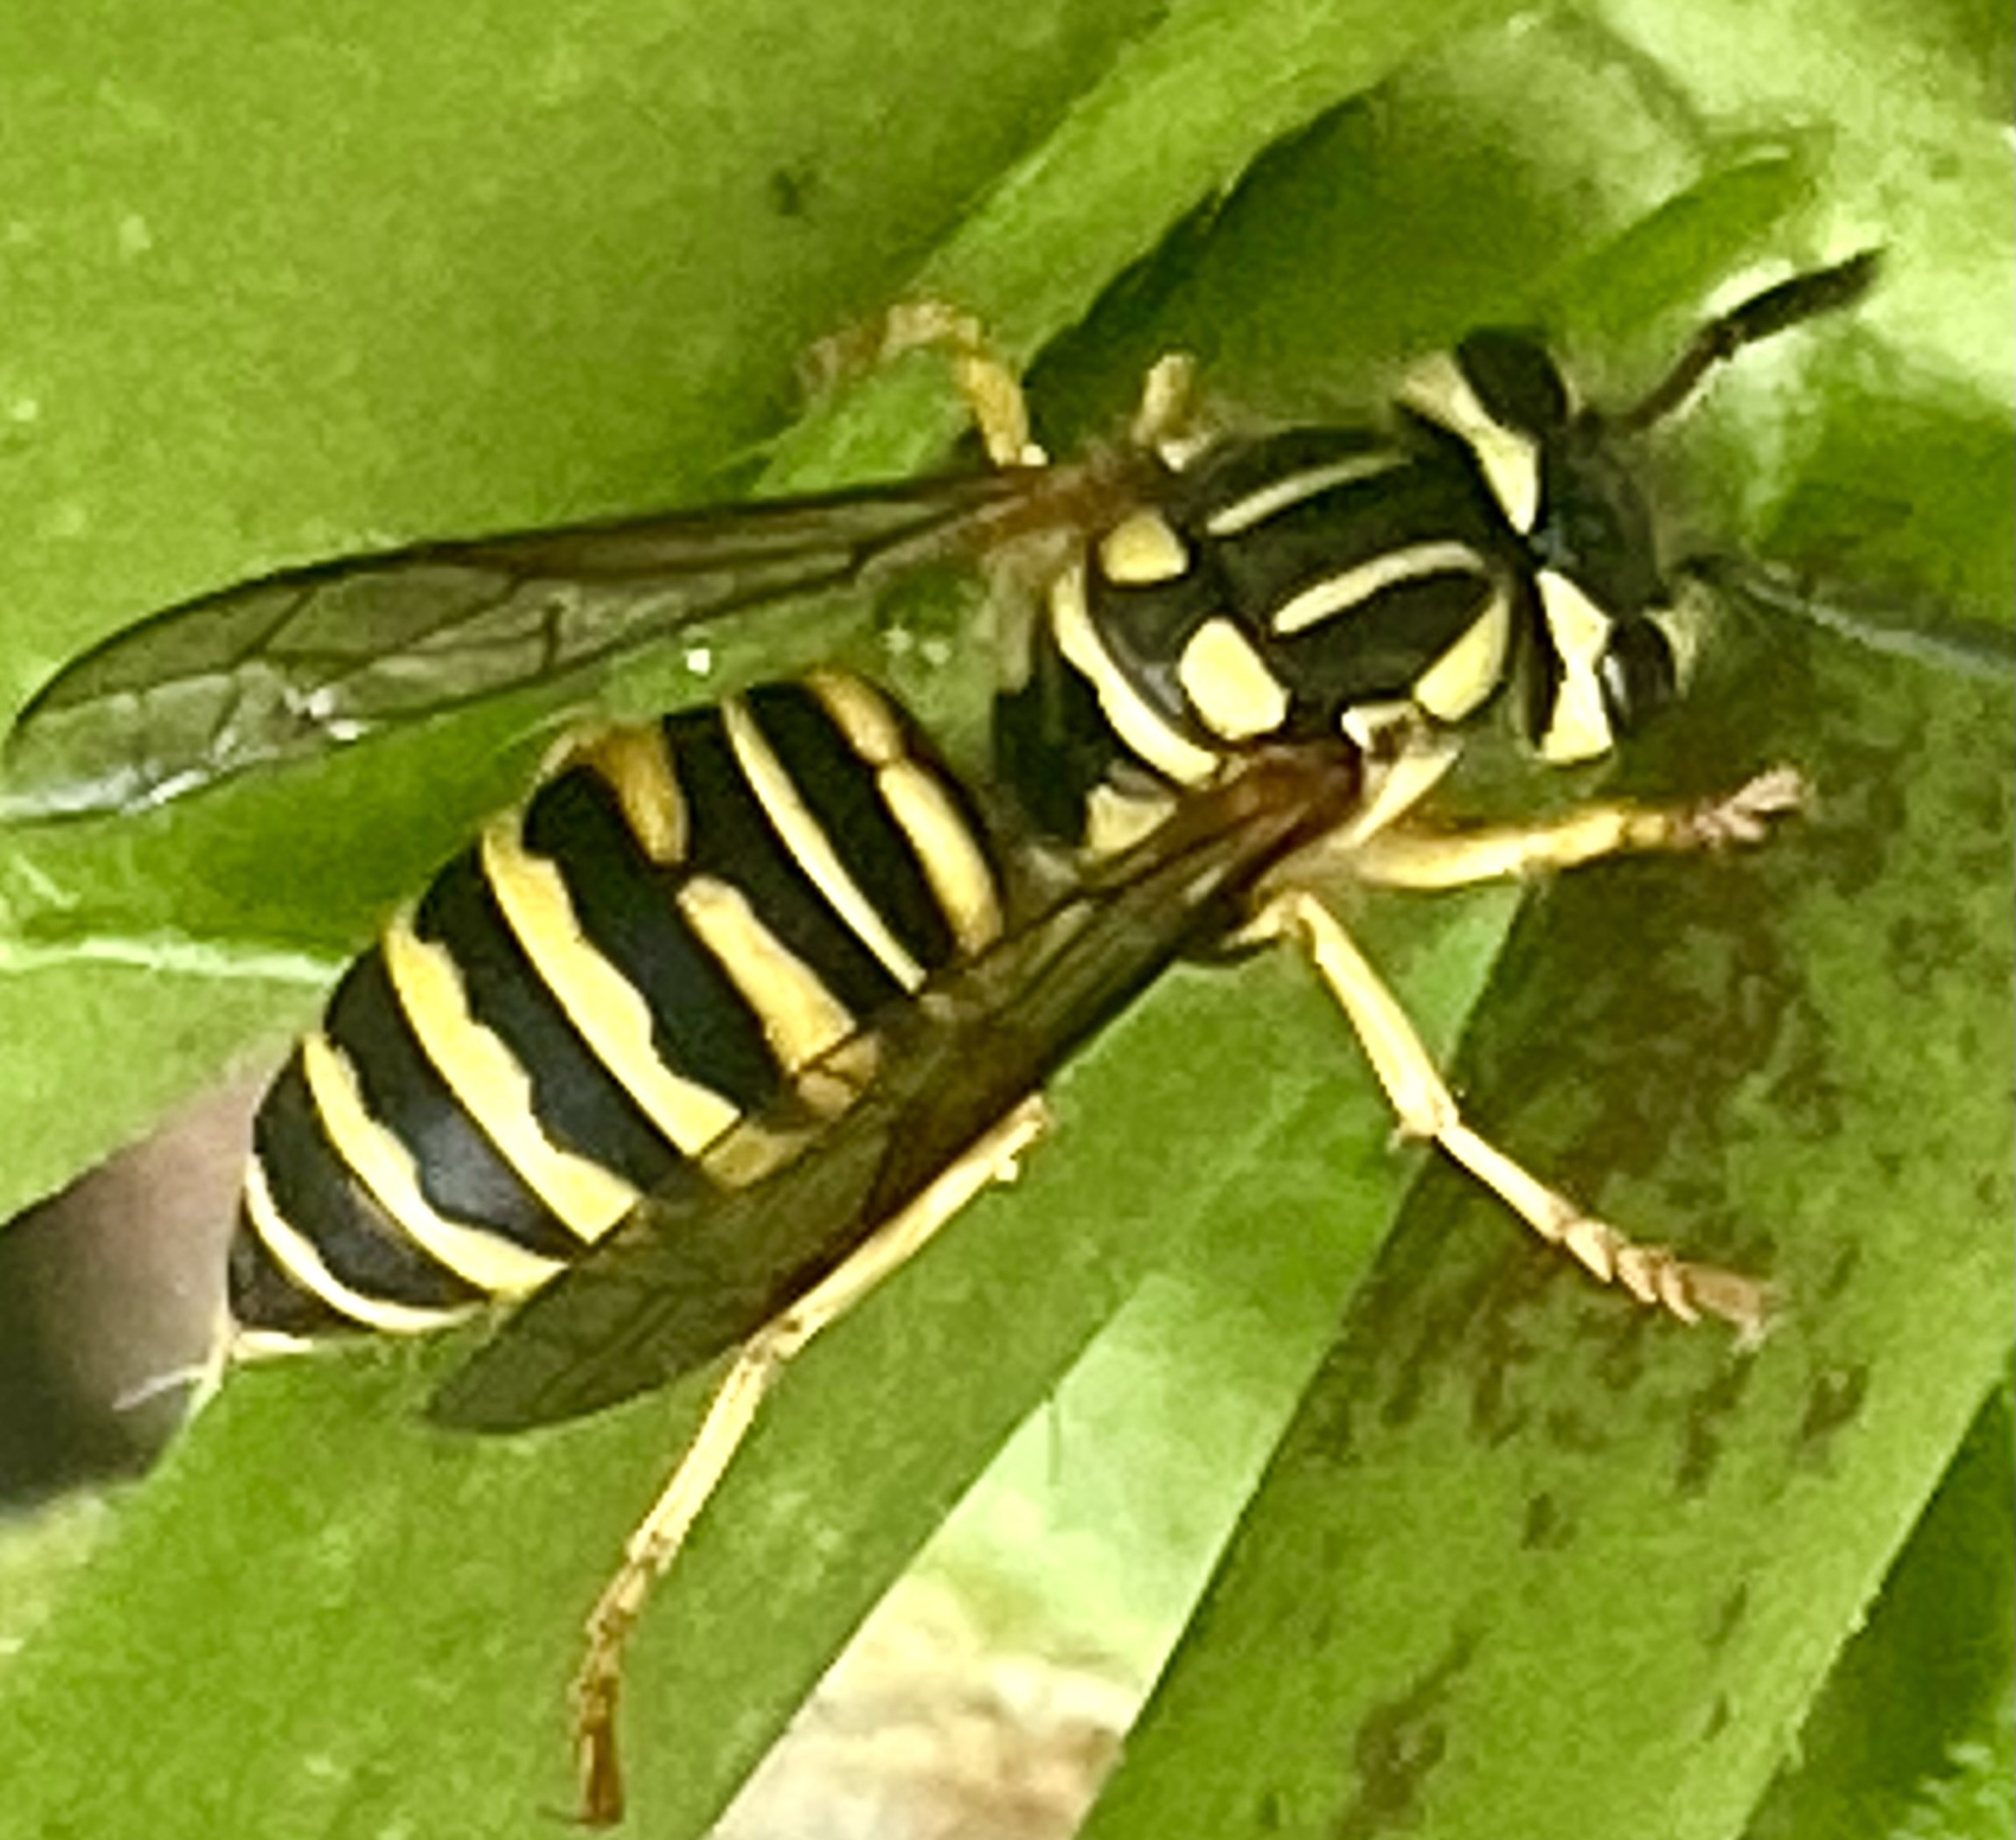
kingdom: Animalia
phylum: Arthropoda
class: Insecta
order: Hymenoptera
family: Vespidae
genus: Vespula
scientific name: Vespula squamosa
